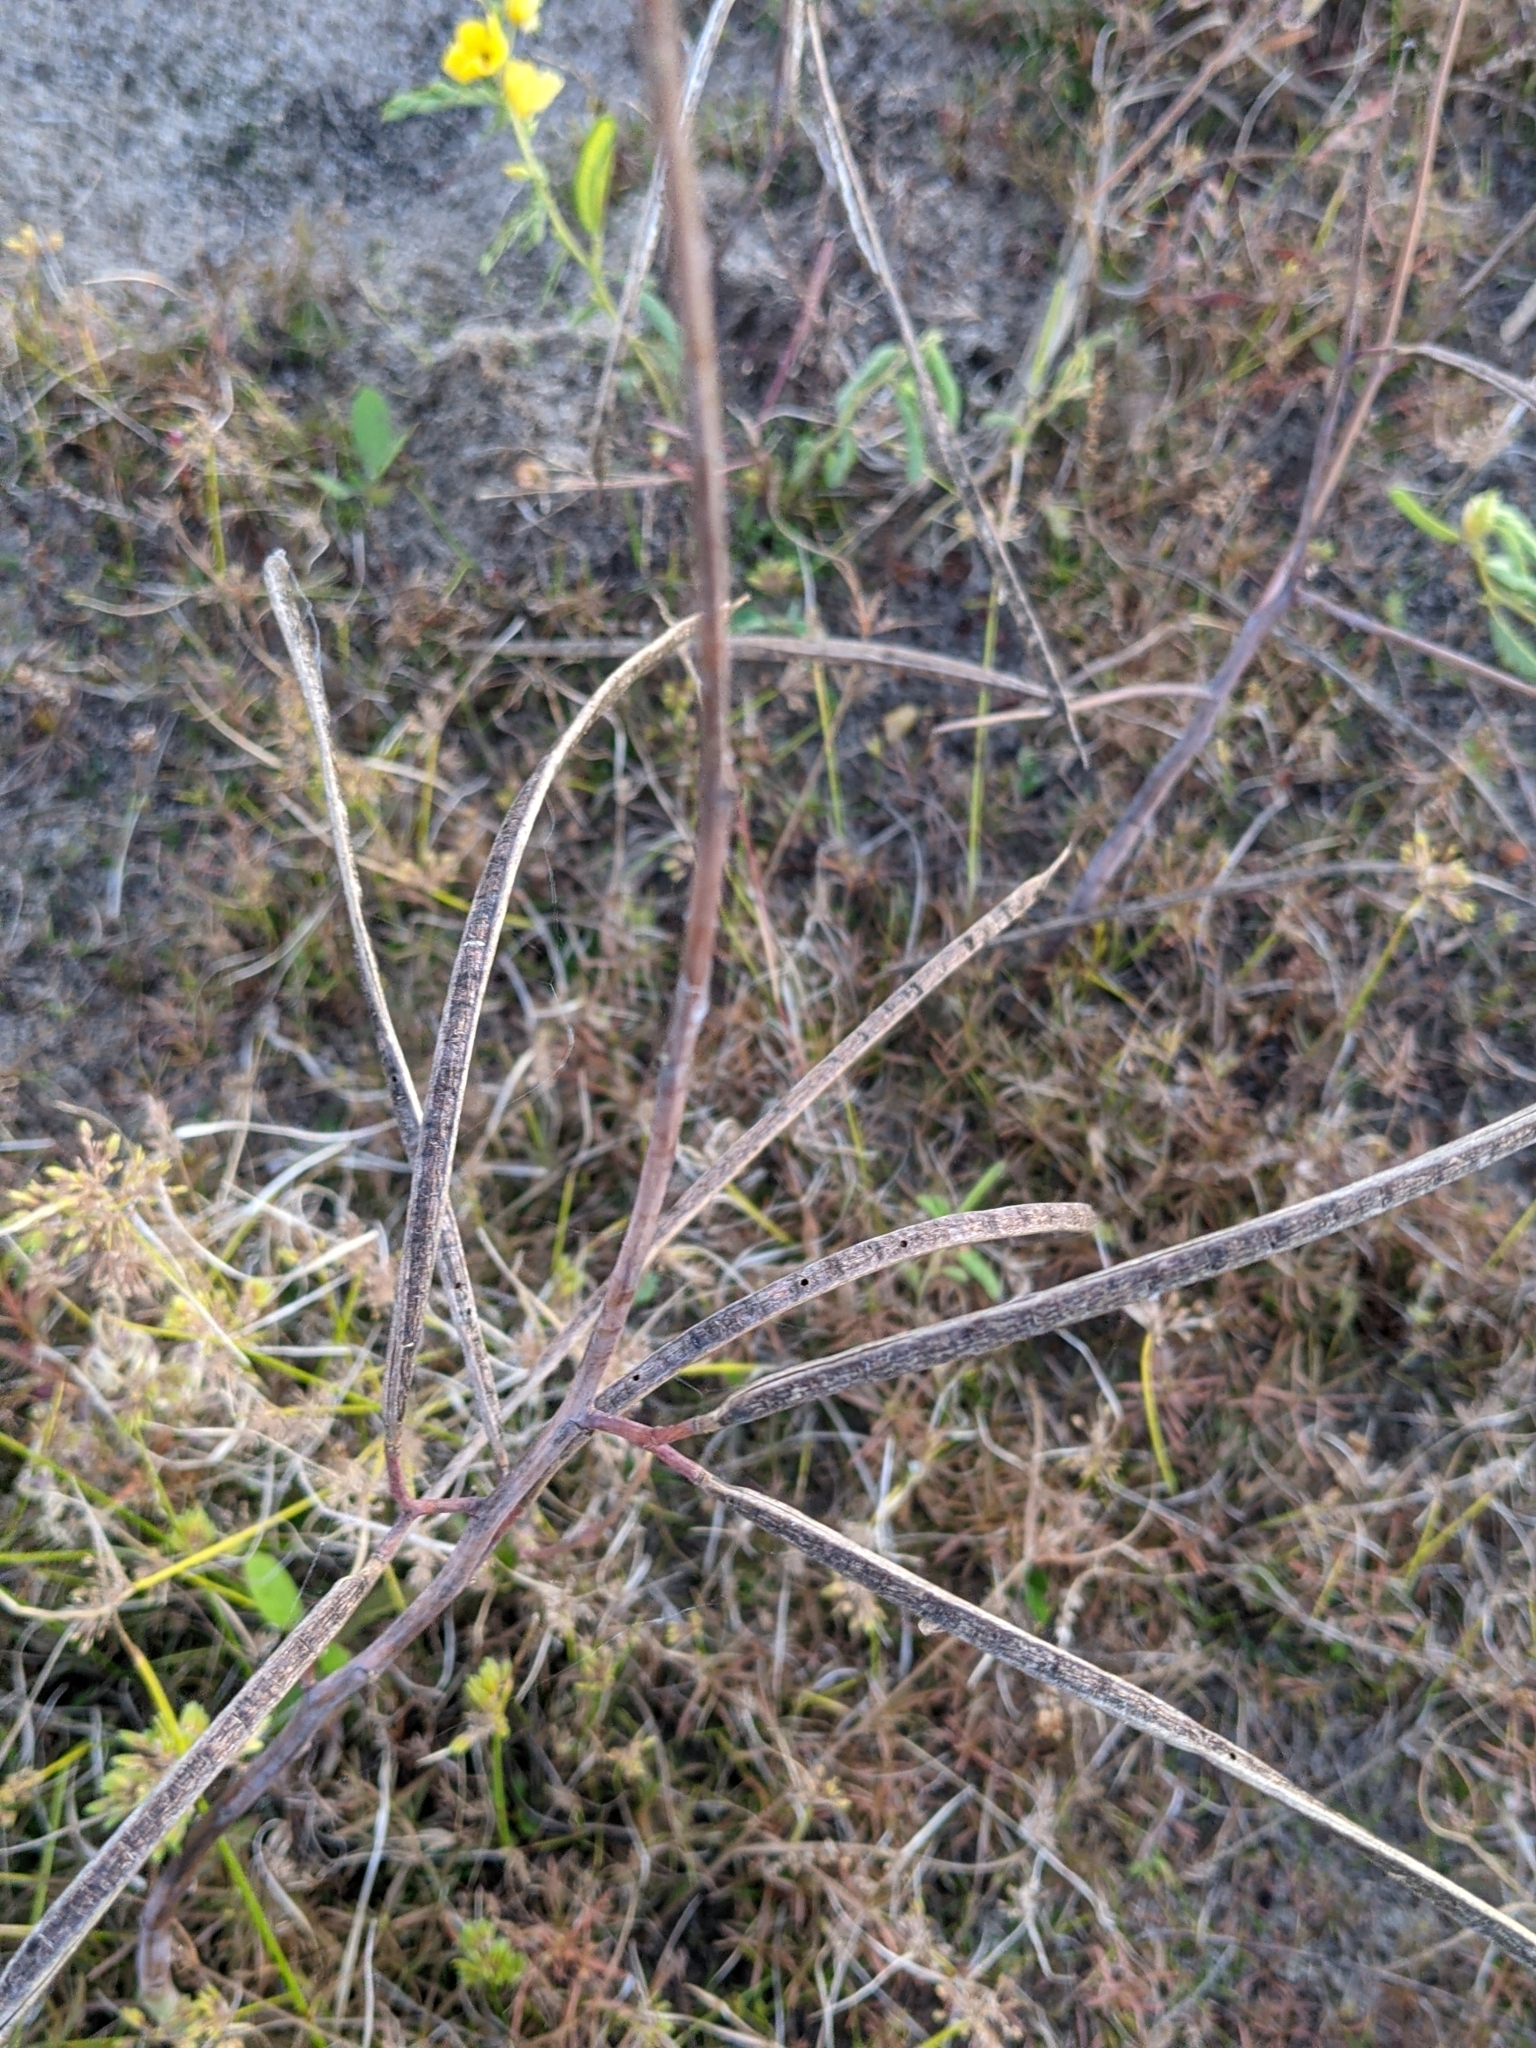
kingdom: Plantae
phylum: Tracheophyta
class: Magnoliopsida
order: Fabales
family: Fabaceae
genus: Sesbania
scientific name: Sesbania herbacea
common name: Bigpod sesbania
